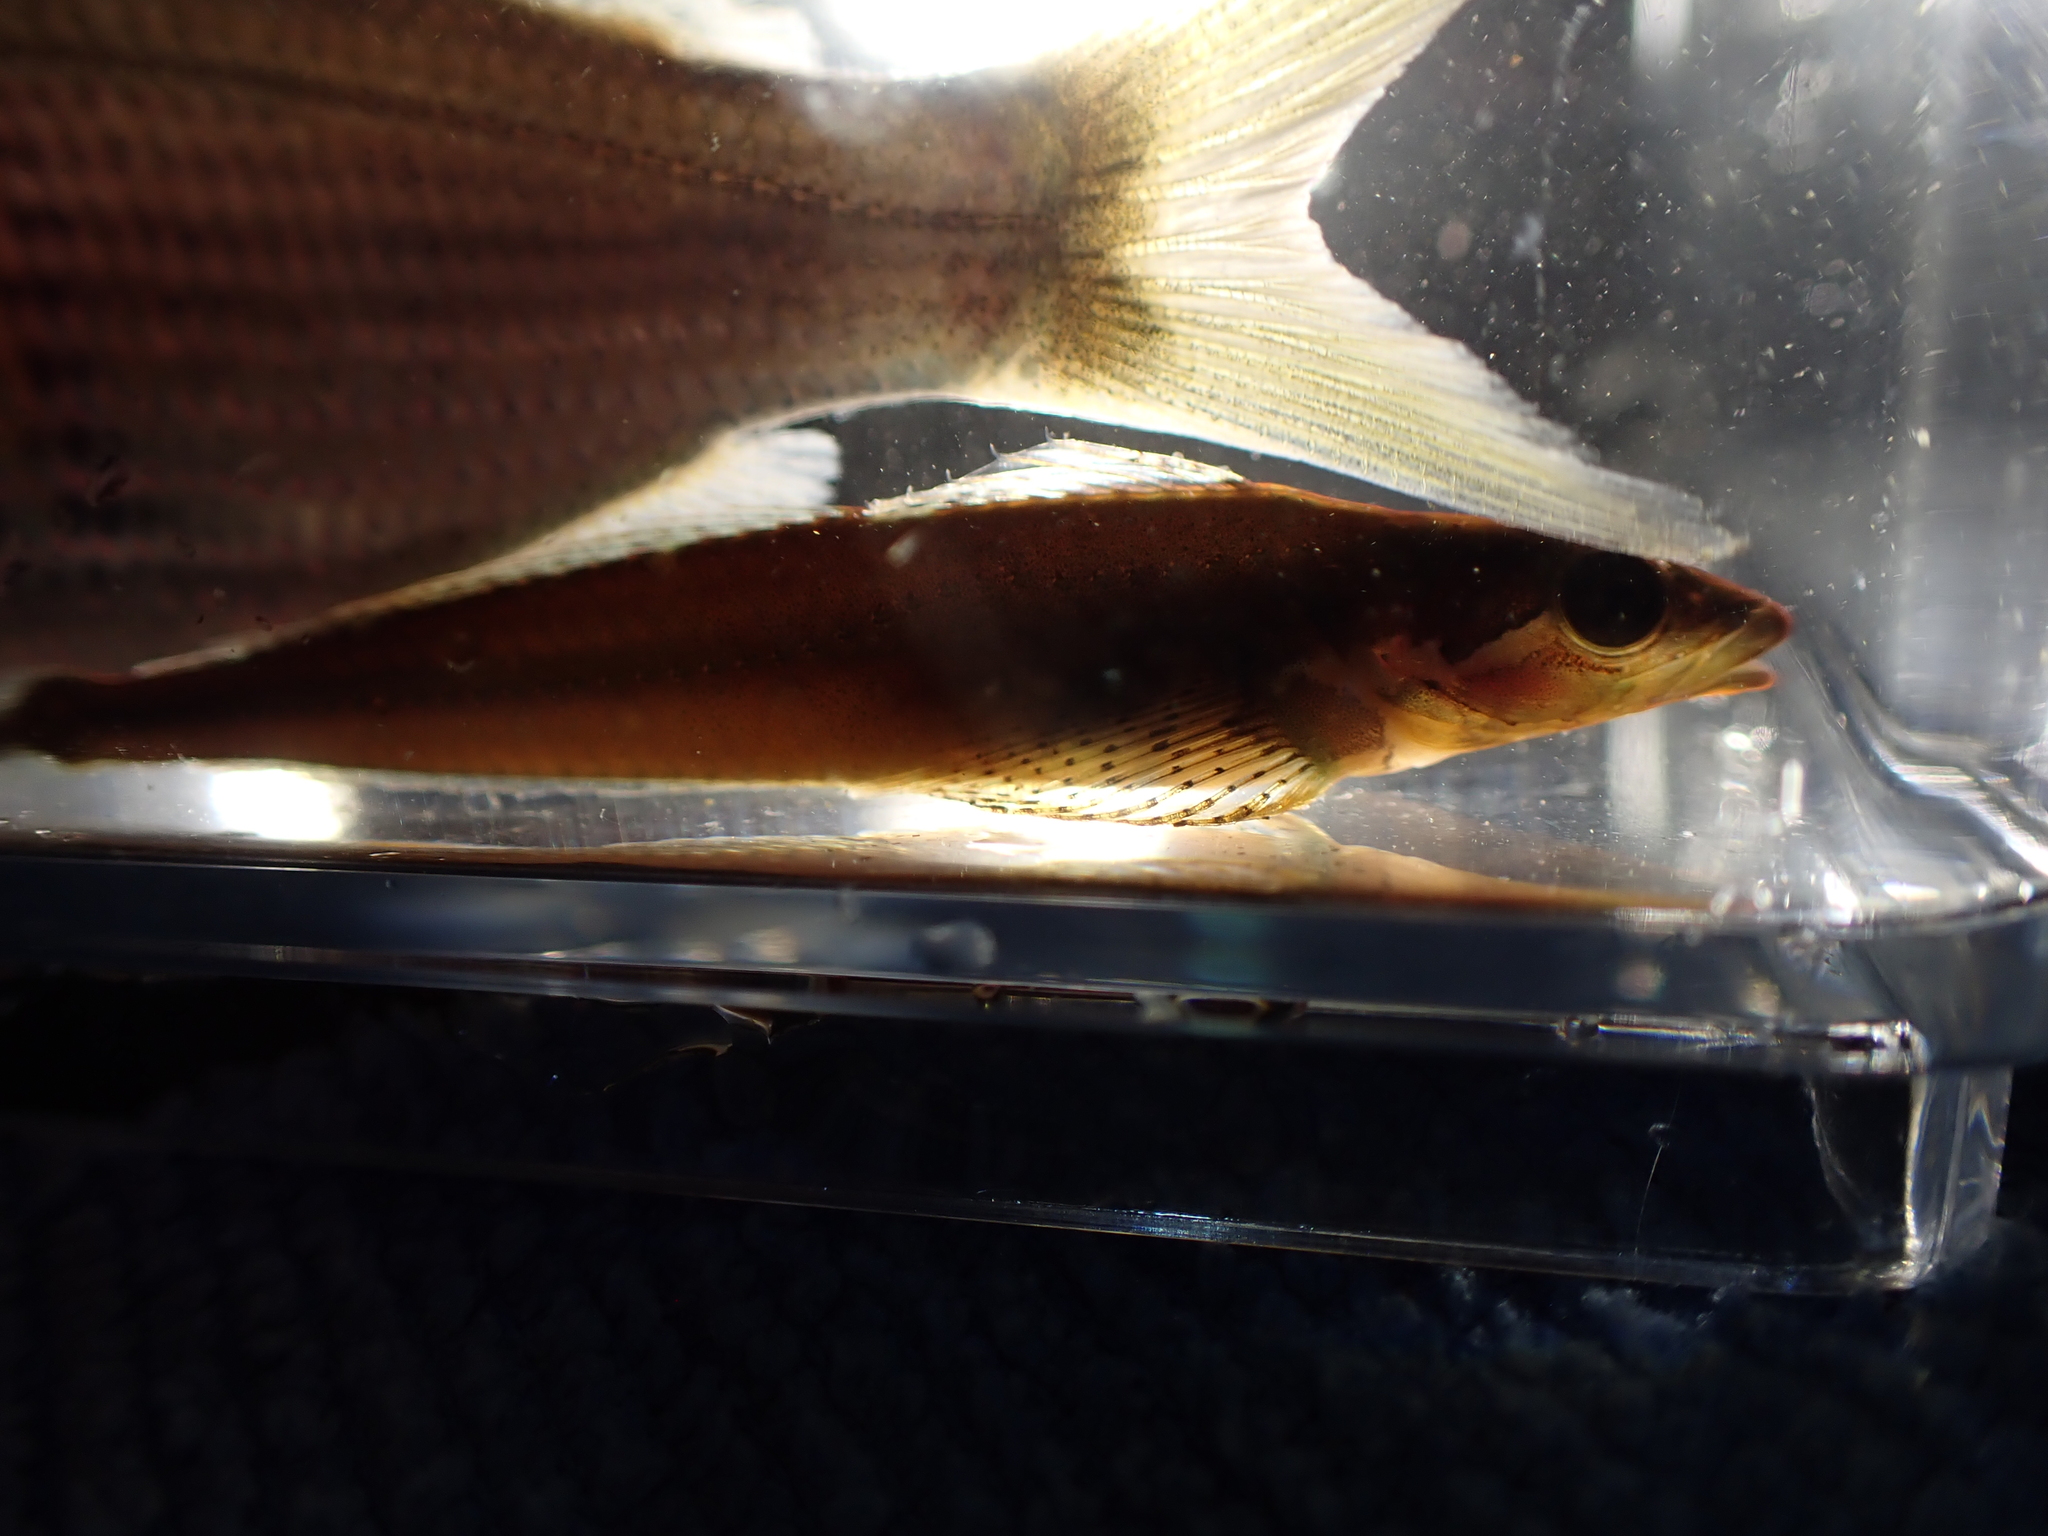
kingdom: Animalia
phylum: Chordata
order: Scorpaeniformes
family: Cottidae
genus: Synchirus
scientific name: Synchirus gilli
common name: Manacled sculpin
